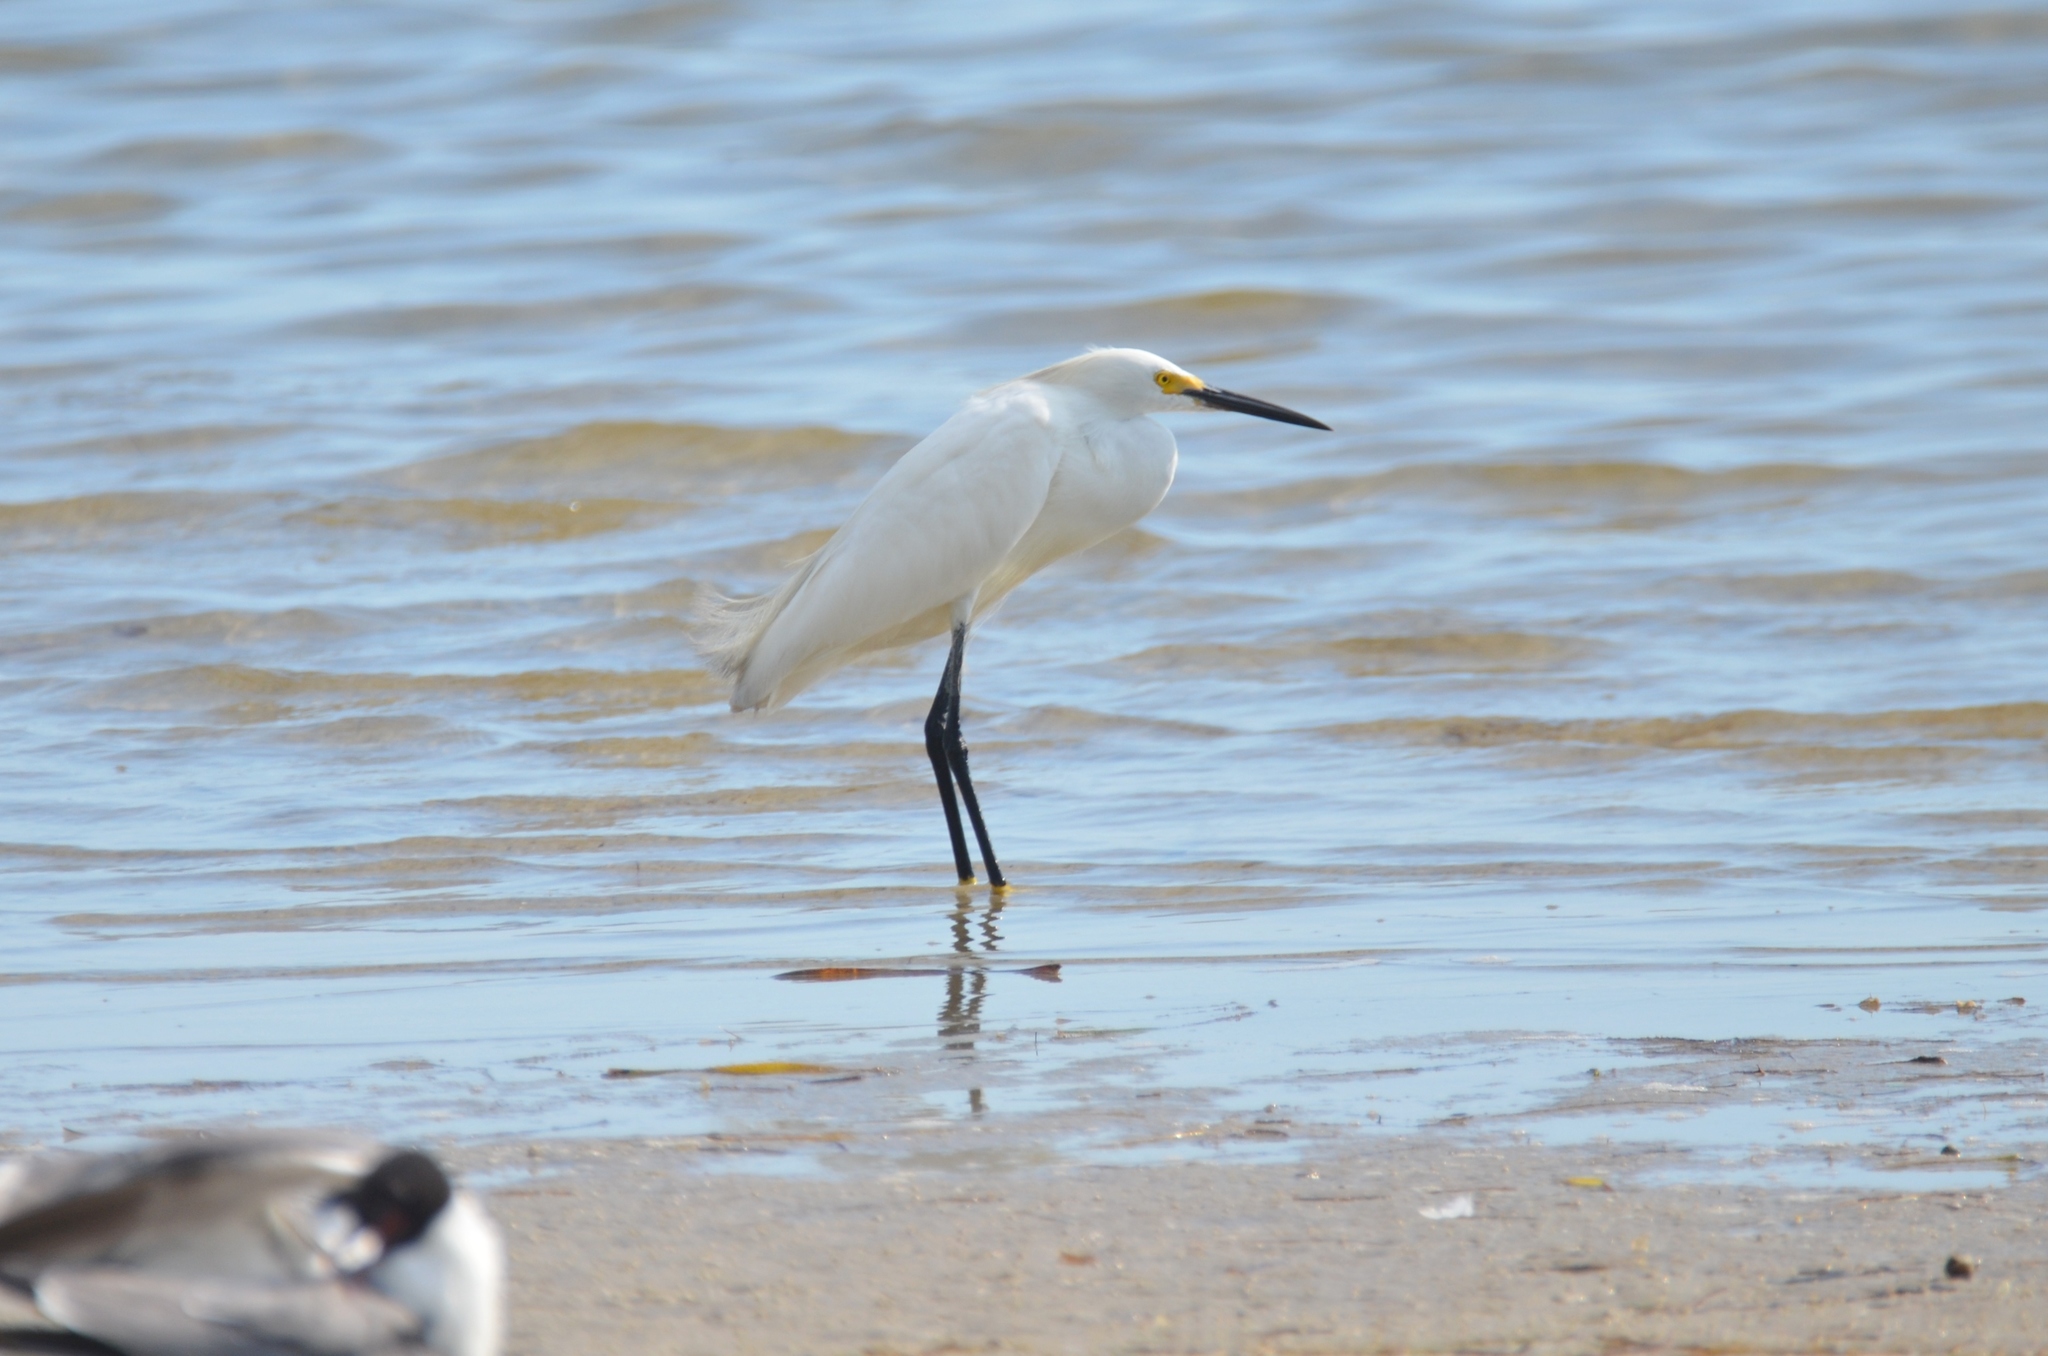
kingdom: Animalia
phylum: Chordata
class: Aves
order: Pelecaniformes
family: Ardeidae
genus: Egretta
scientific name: Egretta thula
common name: Snowy egret
